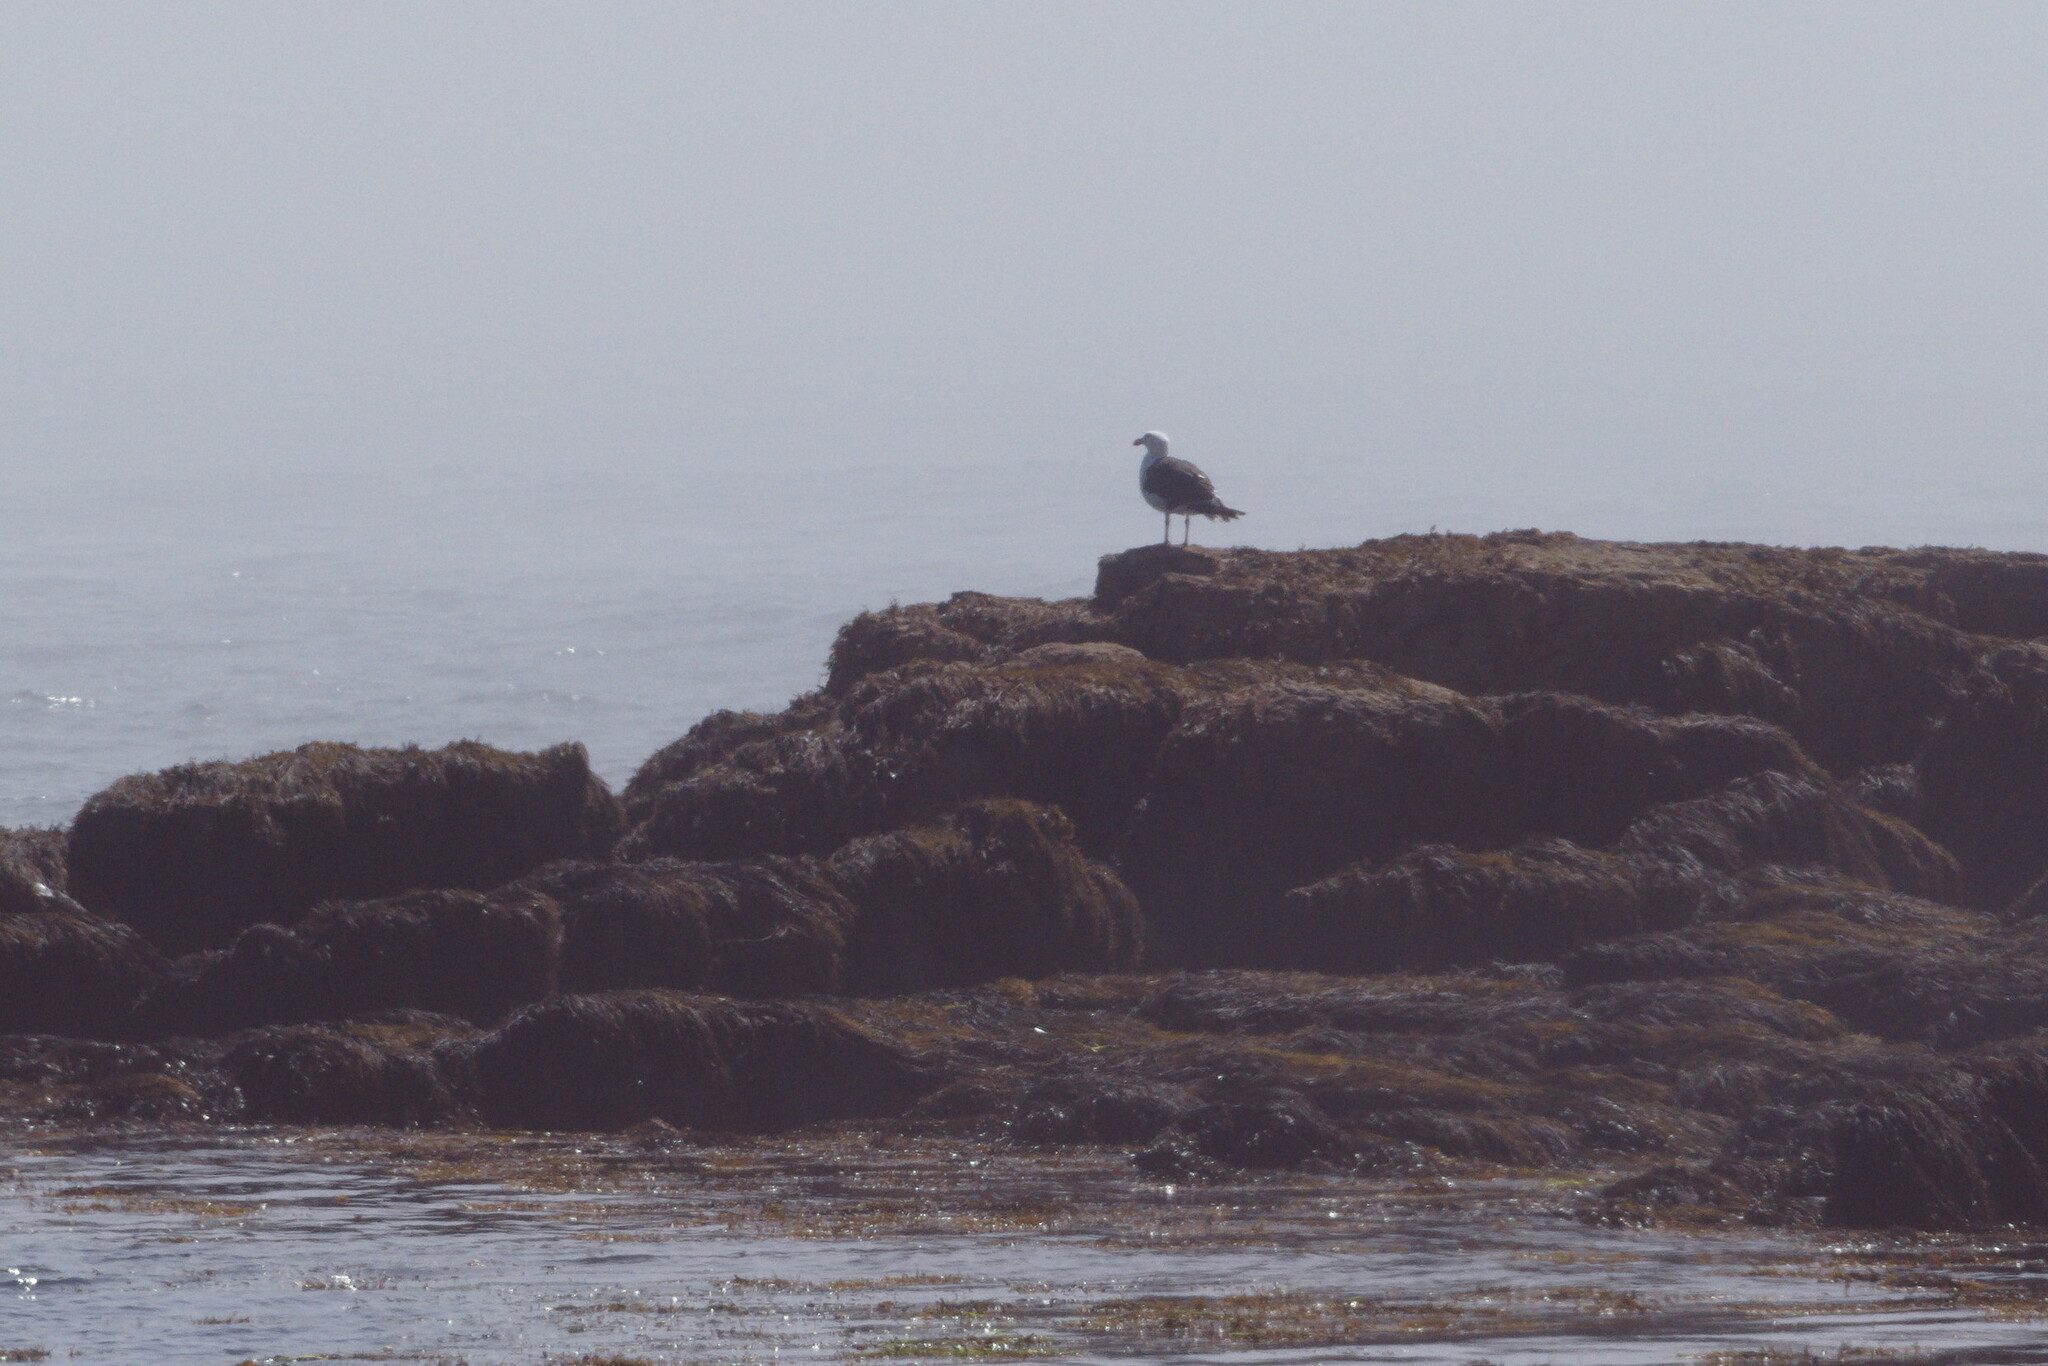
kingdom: Animalia
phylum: Chordata
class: Aves
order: Charadriiformes
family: Laridae
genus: Larus
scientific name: Larus marinus
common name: Great black-backed gull
